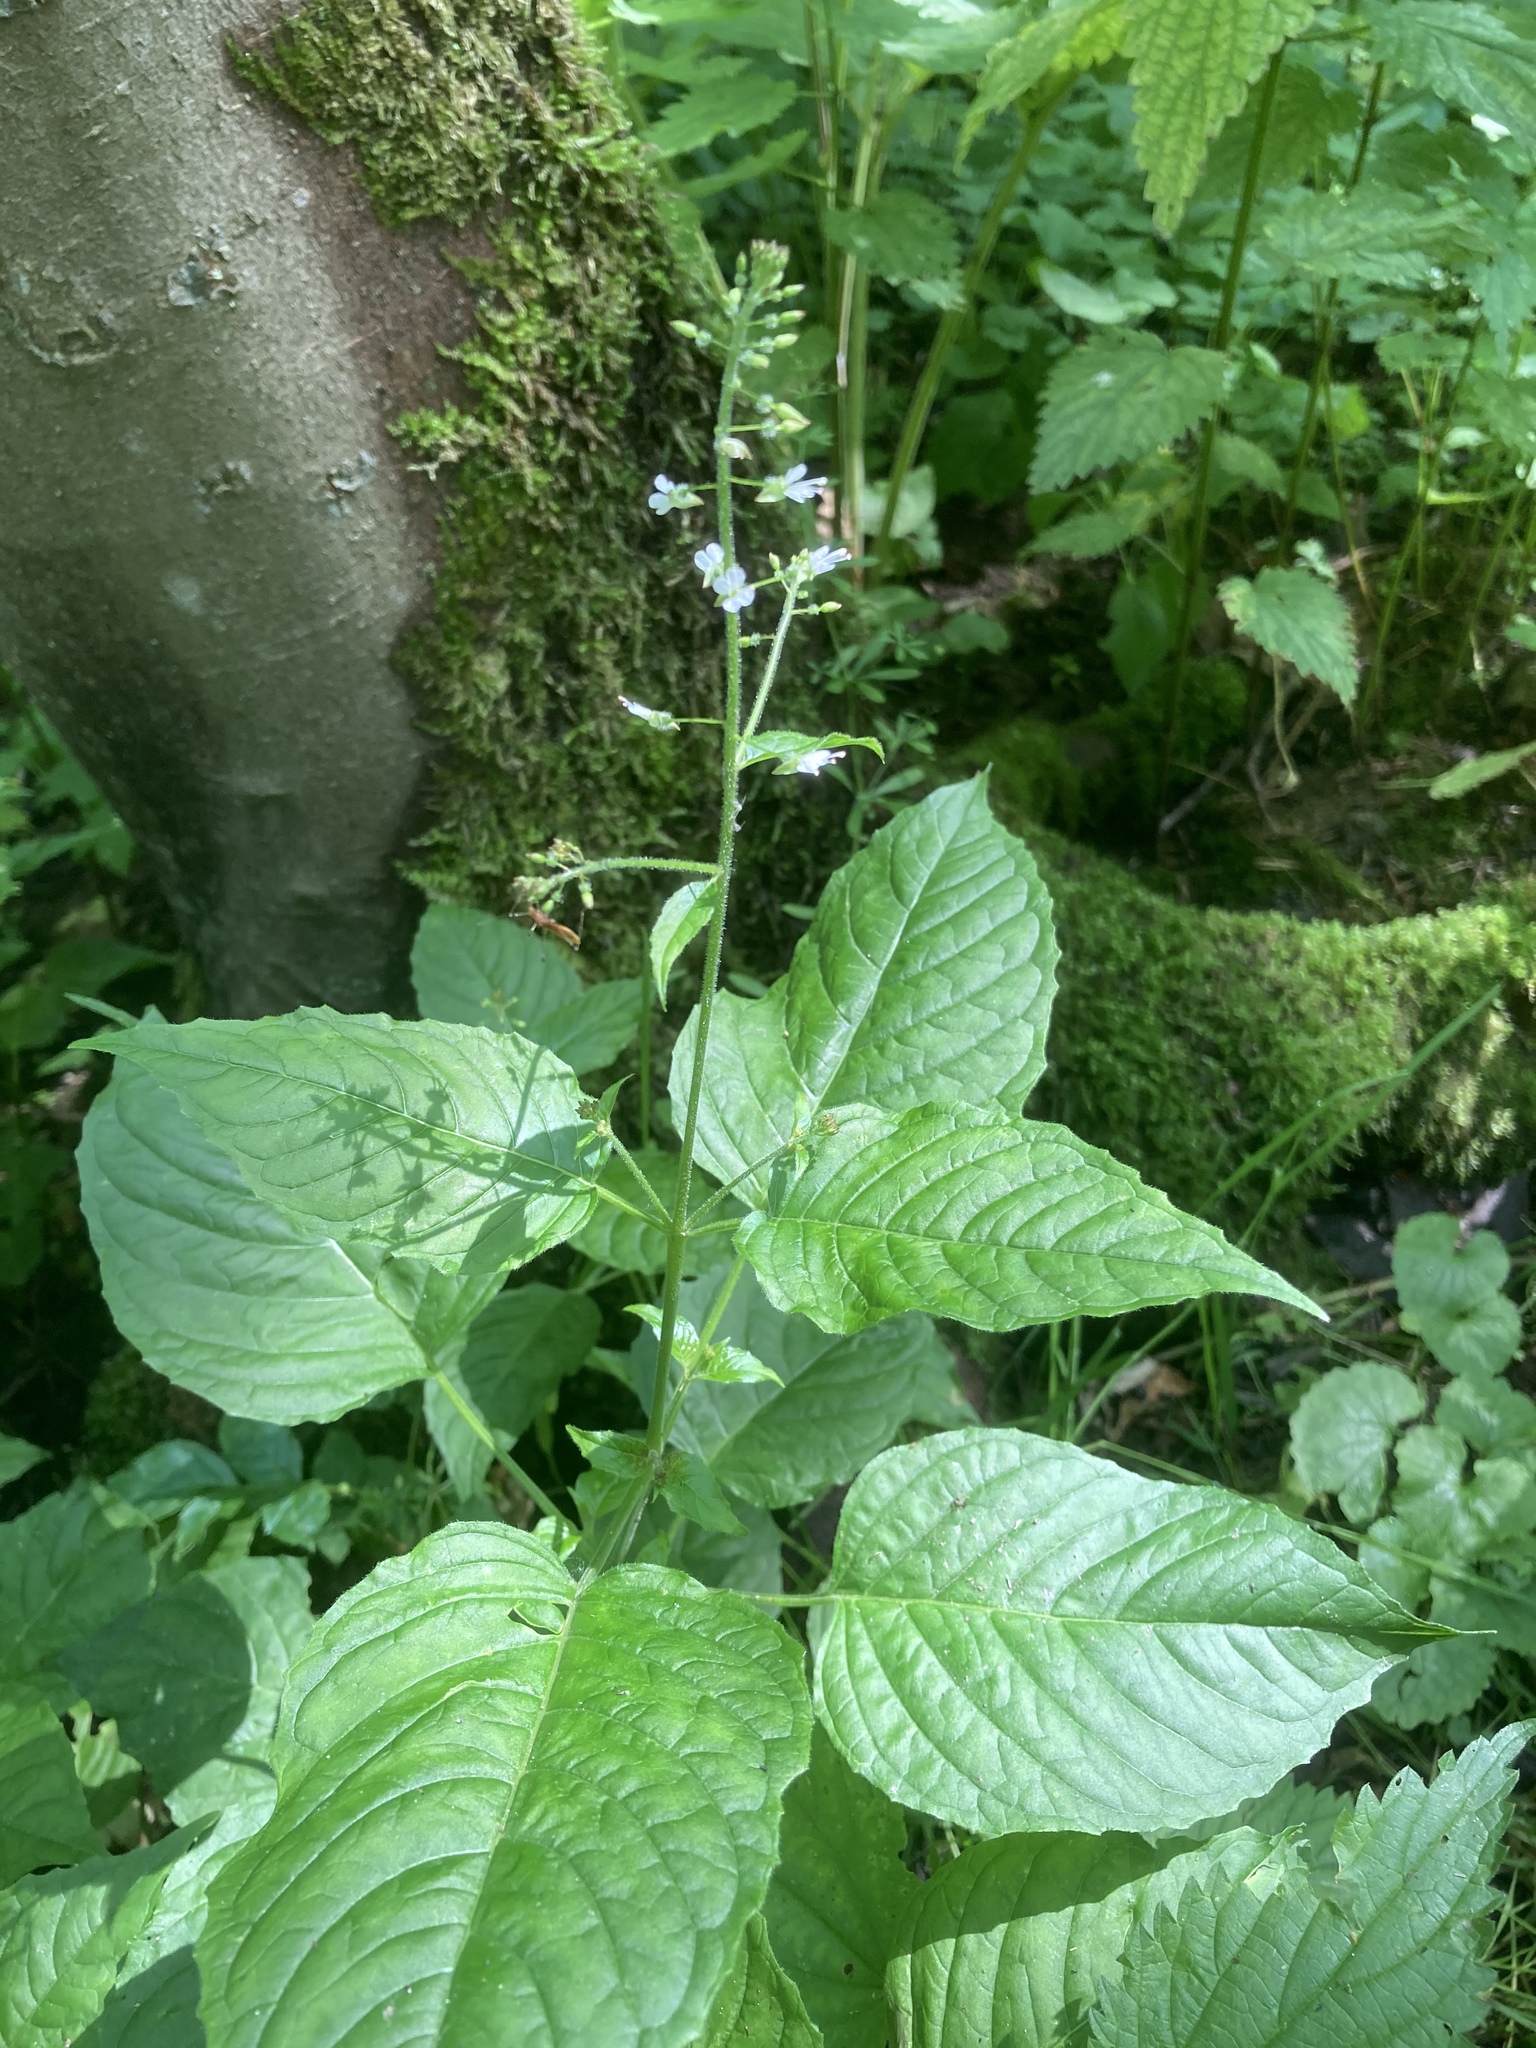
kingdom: Plantae
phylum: Tracheophyta
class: Magnoliopsida
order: Myrtales
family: Onagraceae
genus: Circaea
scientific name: Circaea lutetiana
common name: Enchanter's-nightshade
